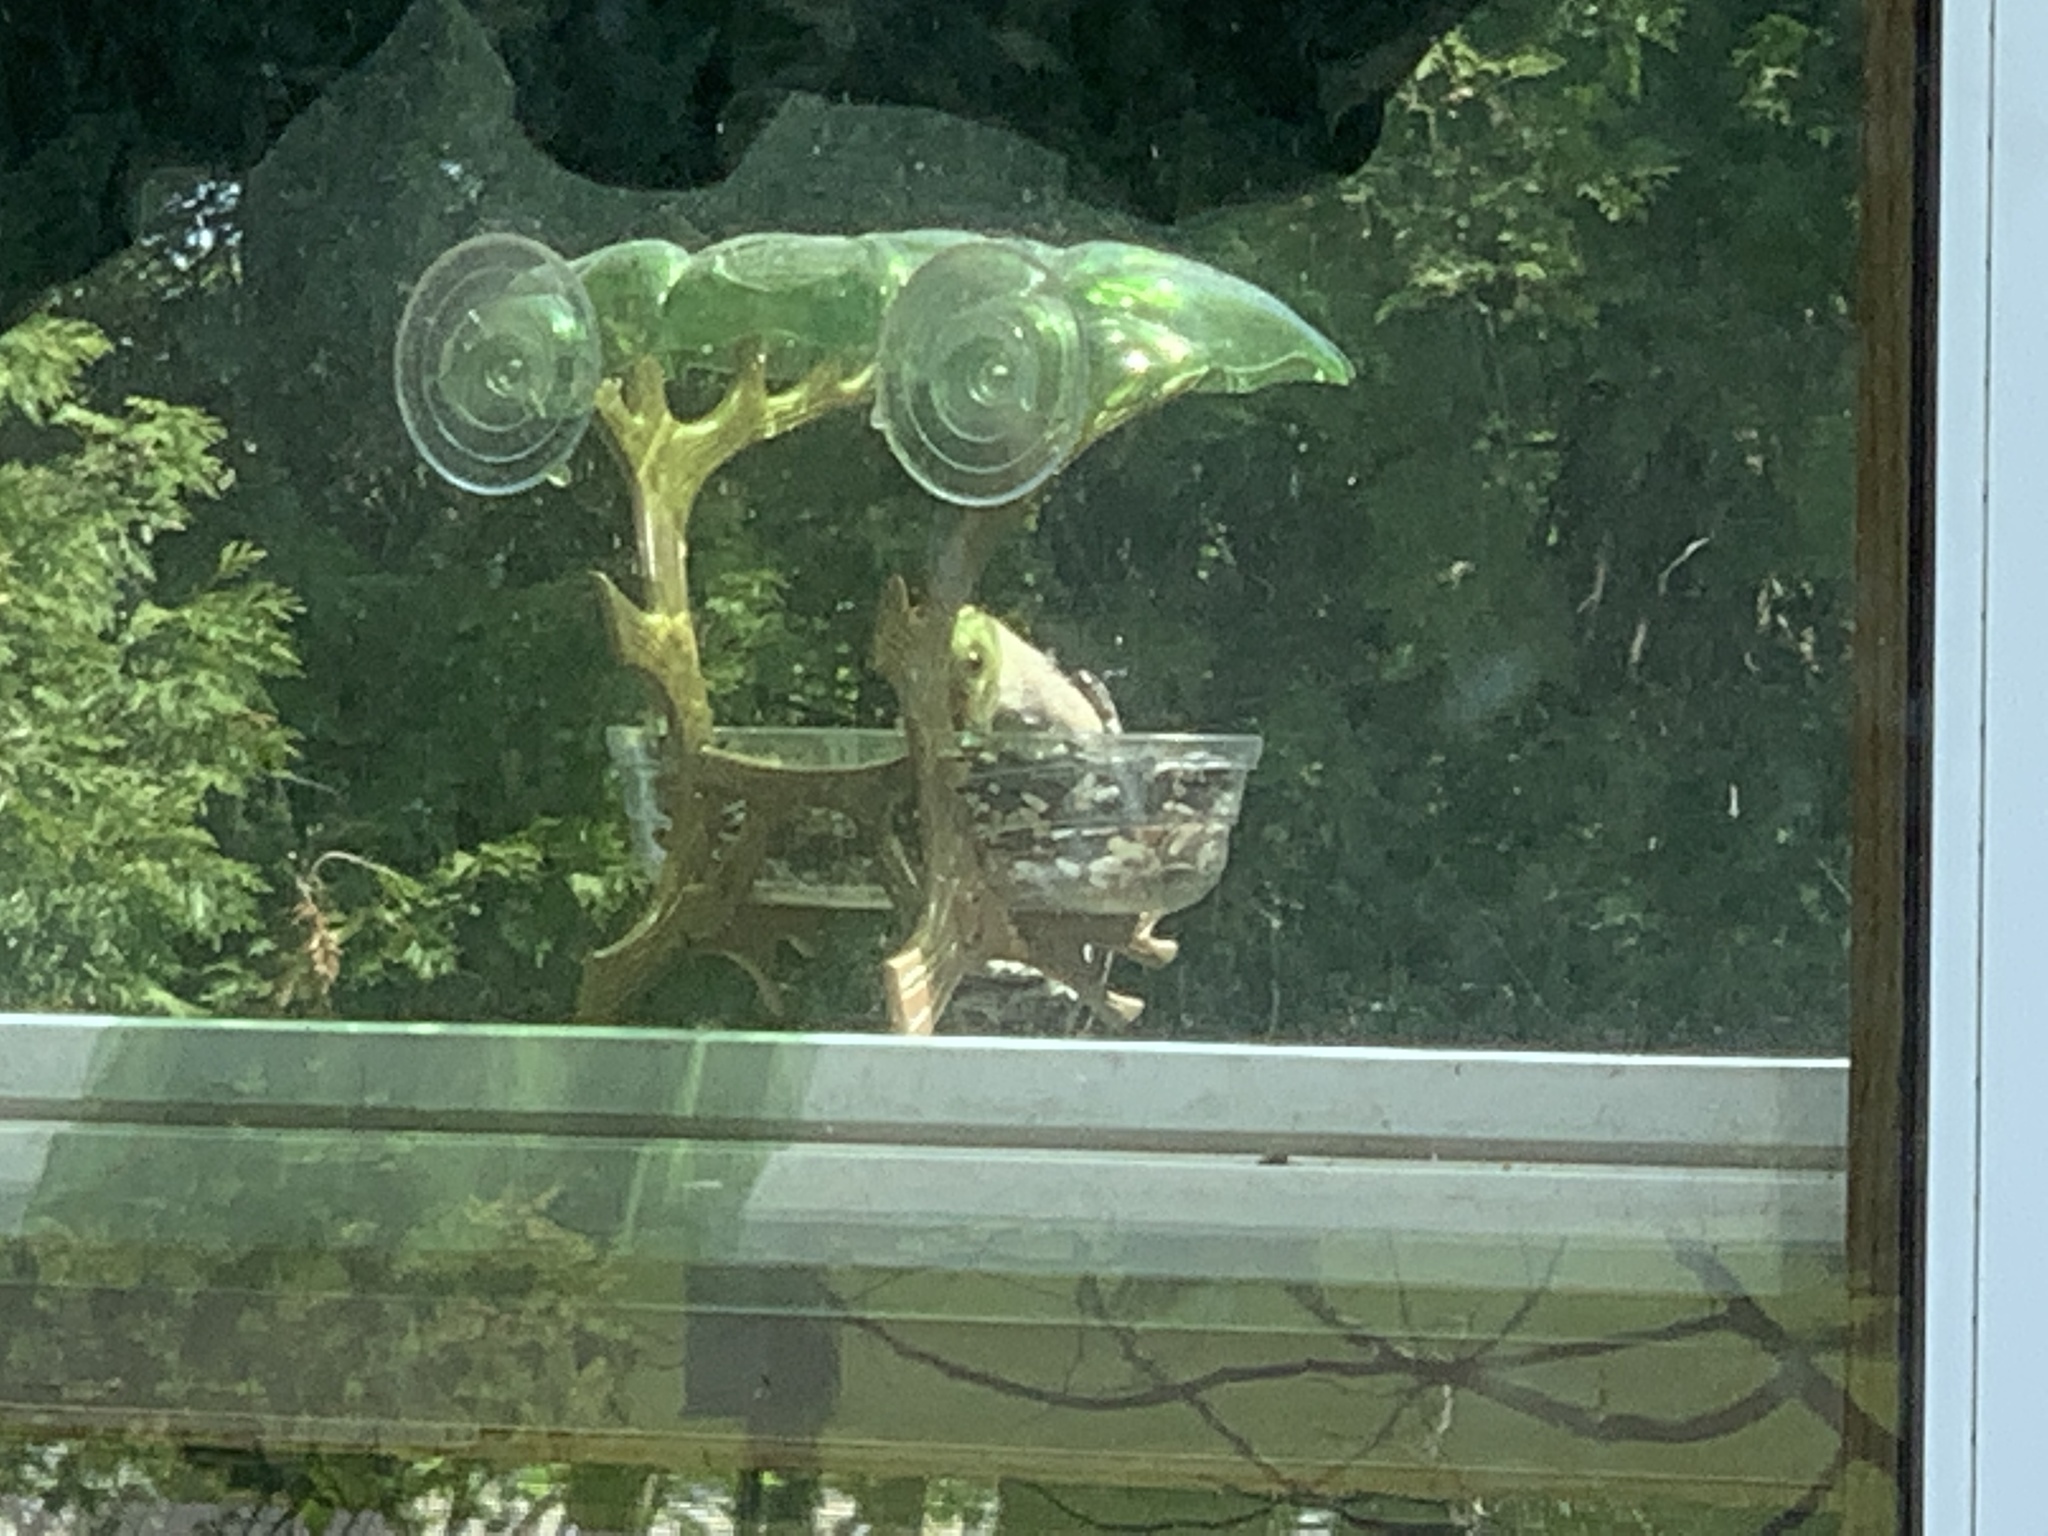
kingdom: Animalia
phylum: Chordata
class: Aves
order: Piciformes
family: Picidae
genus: Melanerpes
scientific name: Melanerpes carolinus
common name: Red-bellied woodpecker
